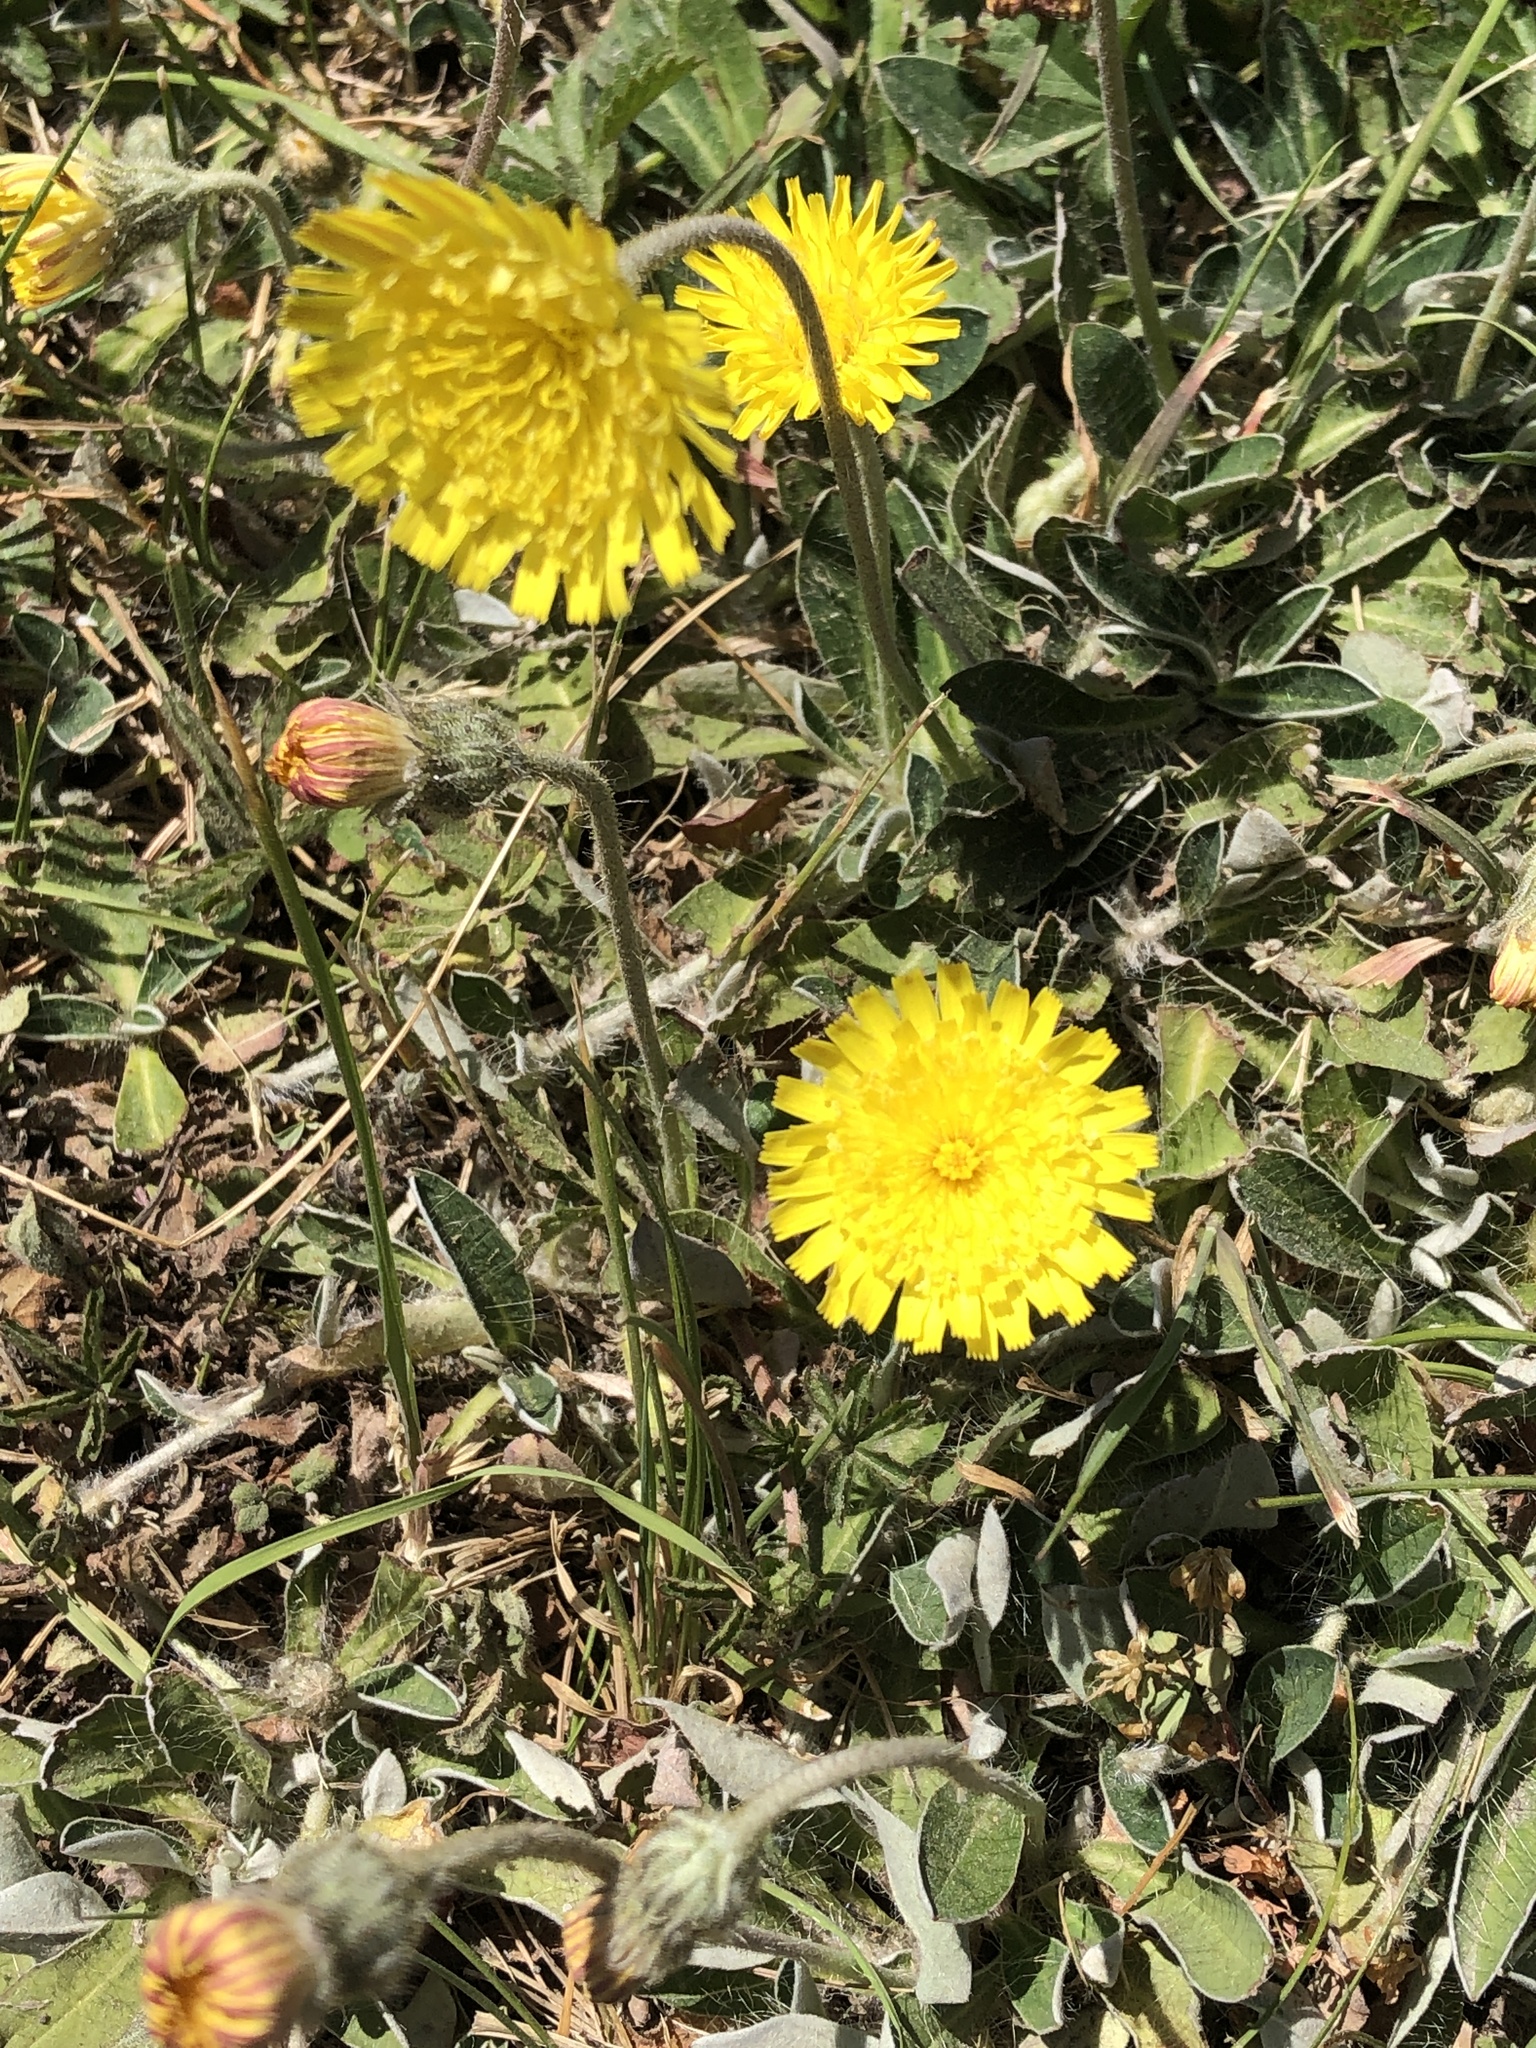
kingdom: Plantae
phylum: Tracheophyta
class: Magnoliopsida
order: Asterales
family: Asteraceae
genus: Pilosella
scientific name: Pilosella officinarum
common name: Mouse-ear hawkweed
